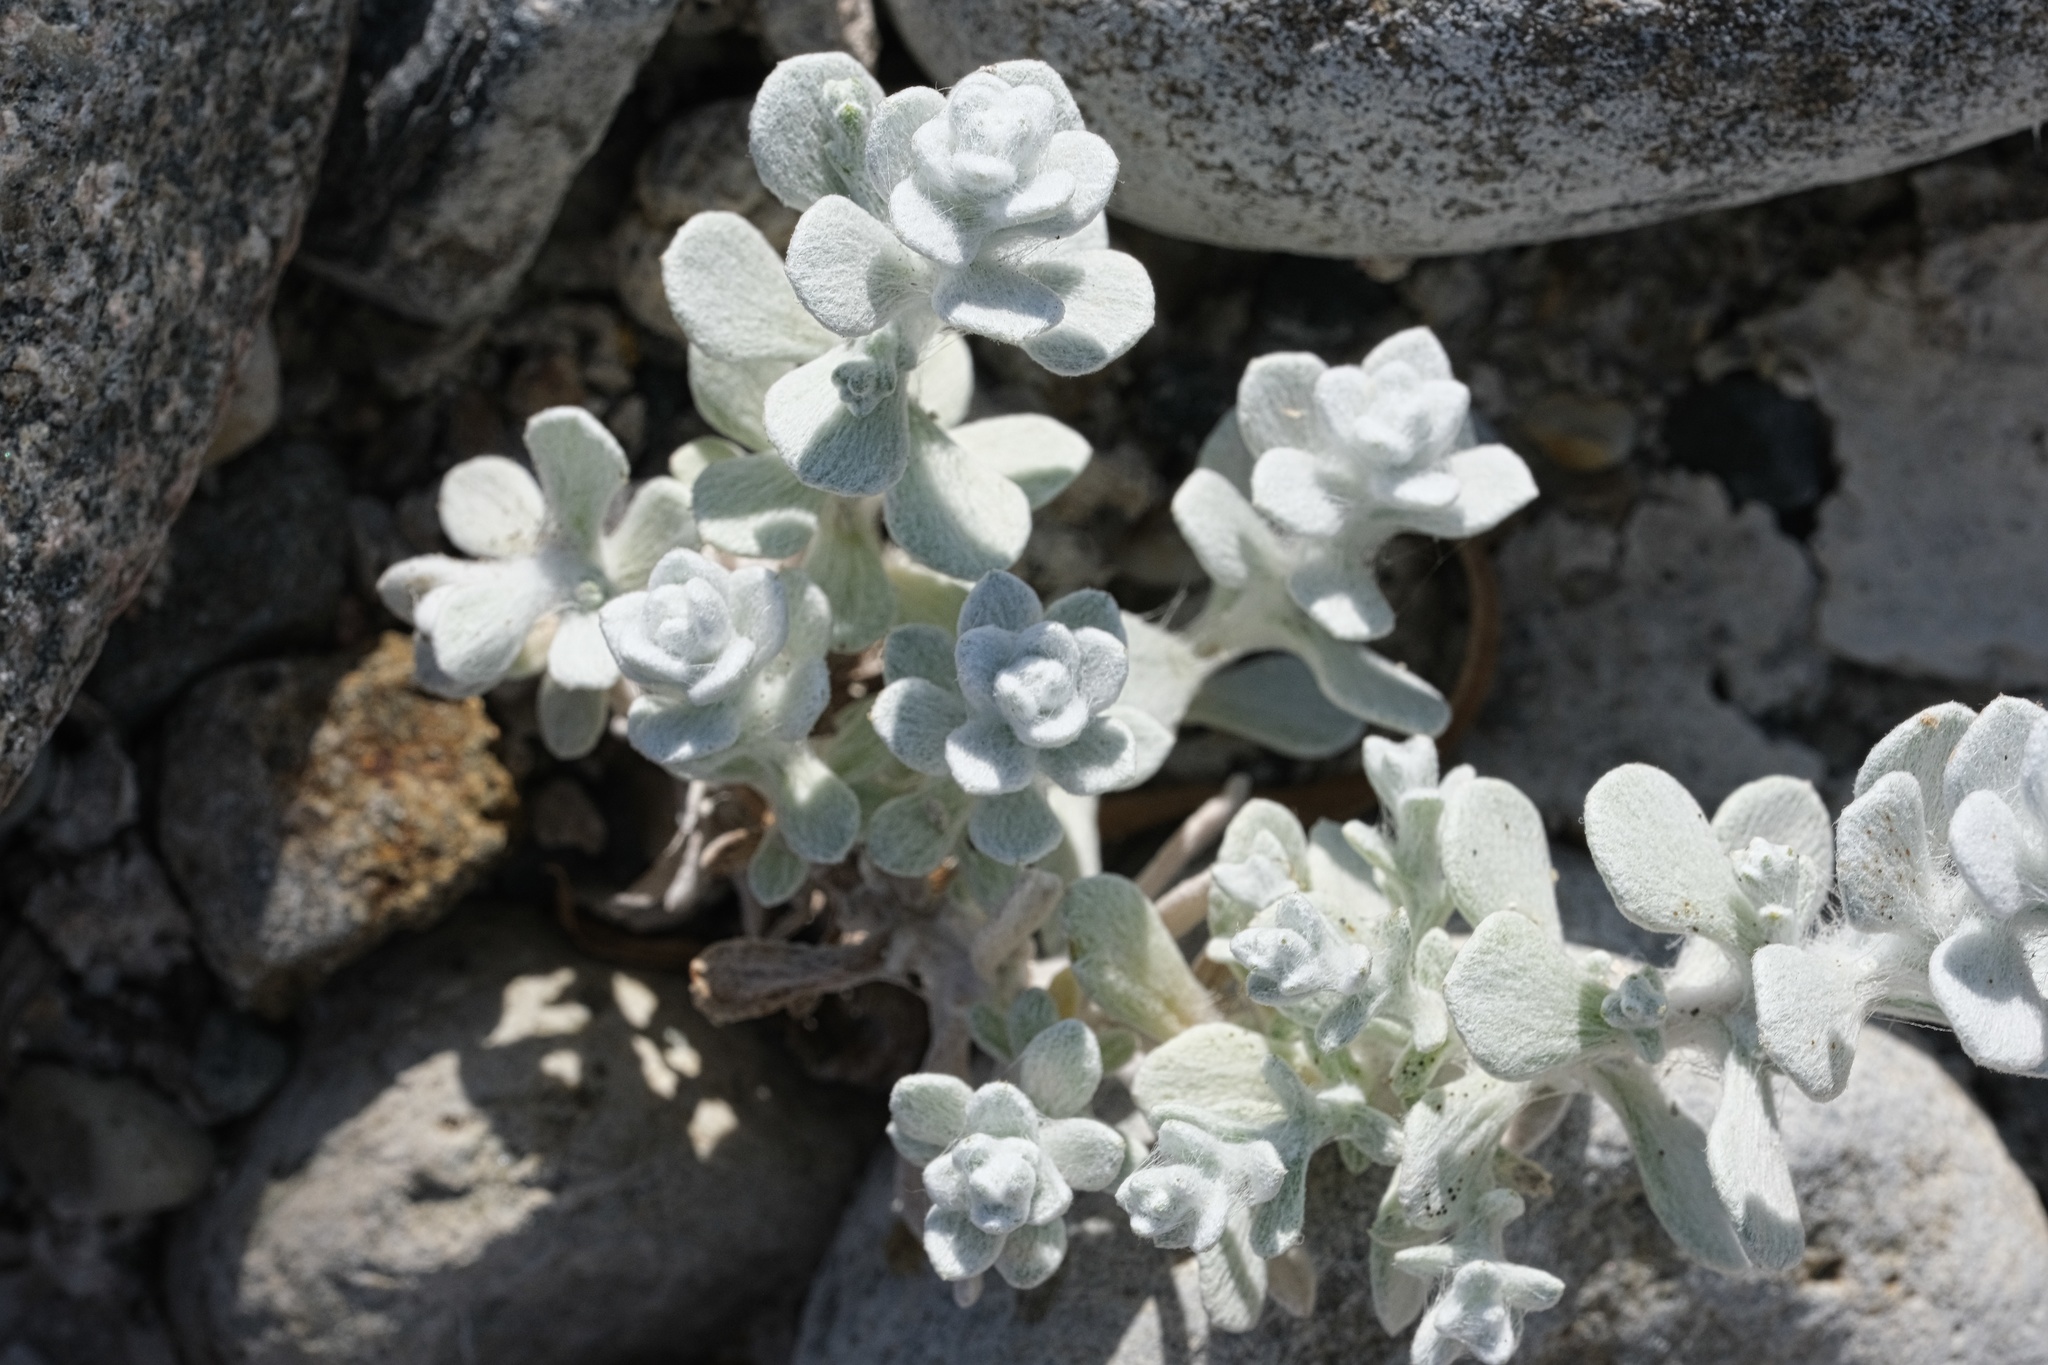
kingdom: Plantae
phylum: Tracheophyta
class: Magnoliopsida
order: Asterales
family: Asteraceae
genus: Lepidospartum
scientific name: Lepidospartum squamatum
